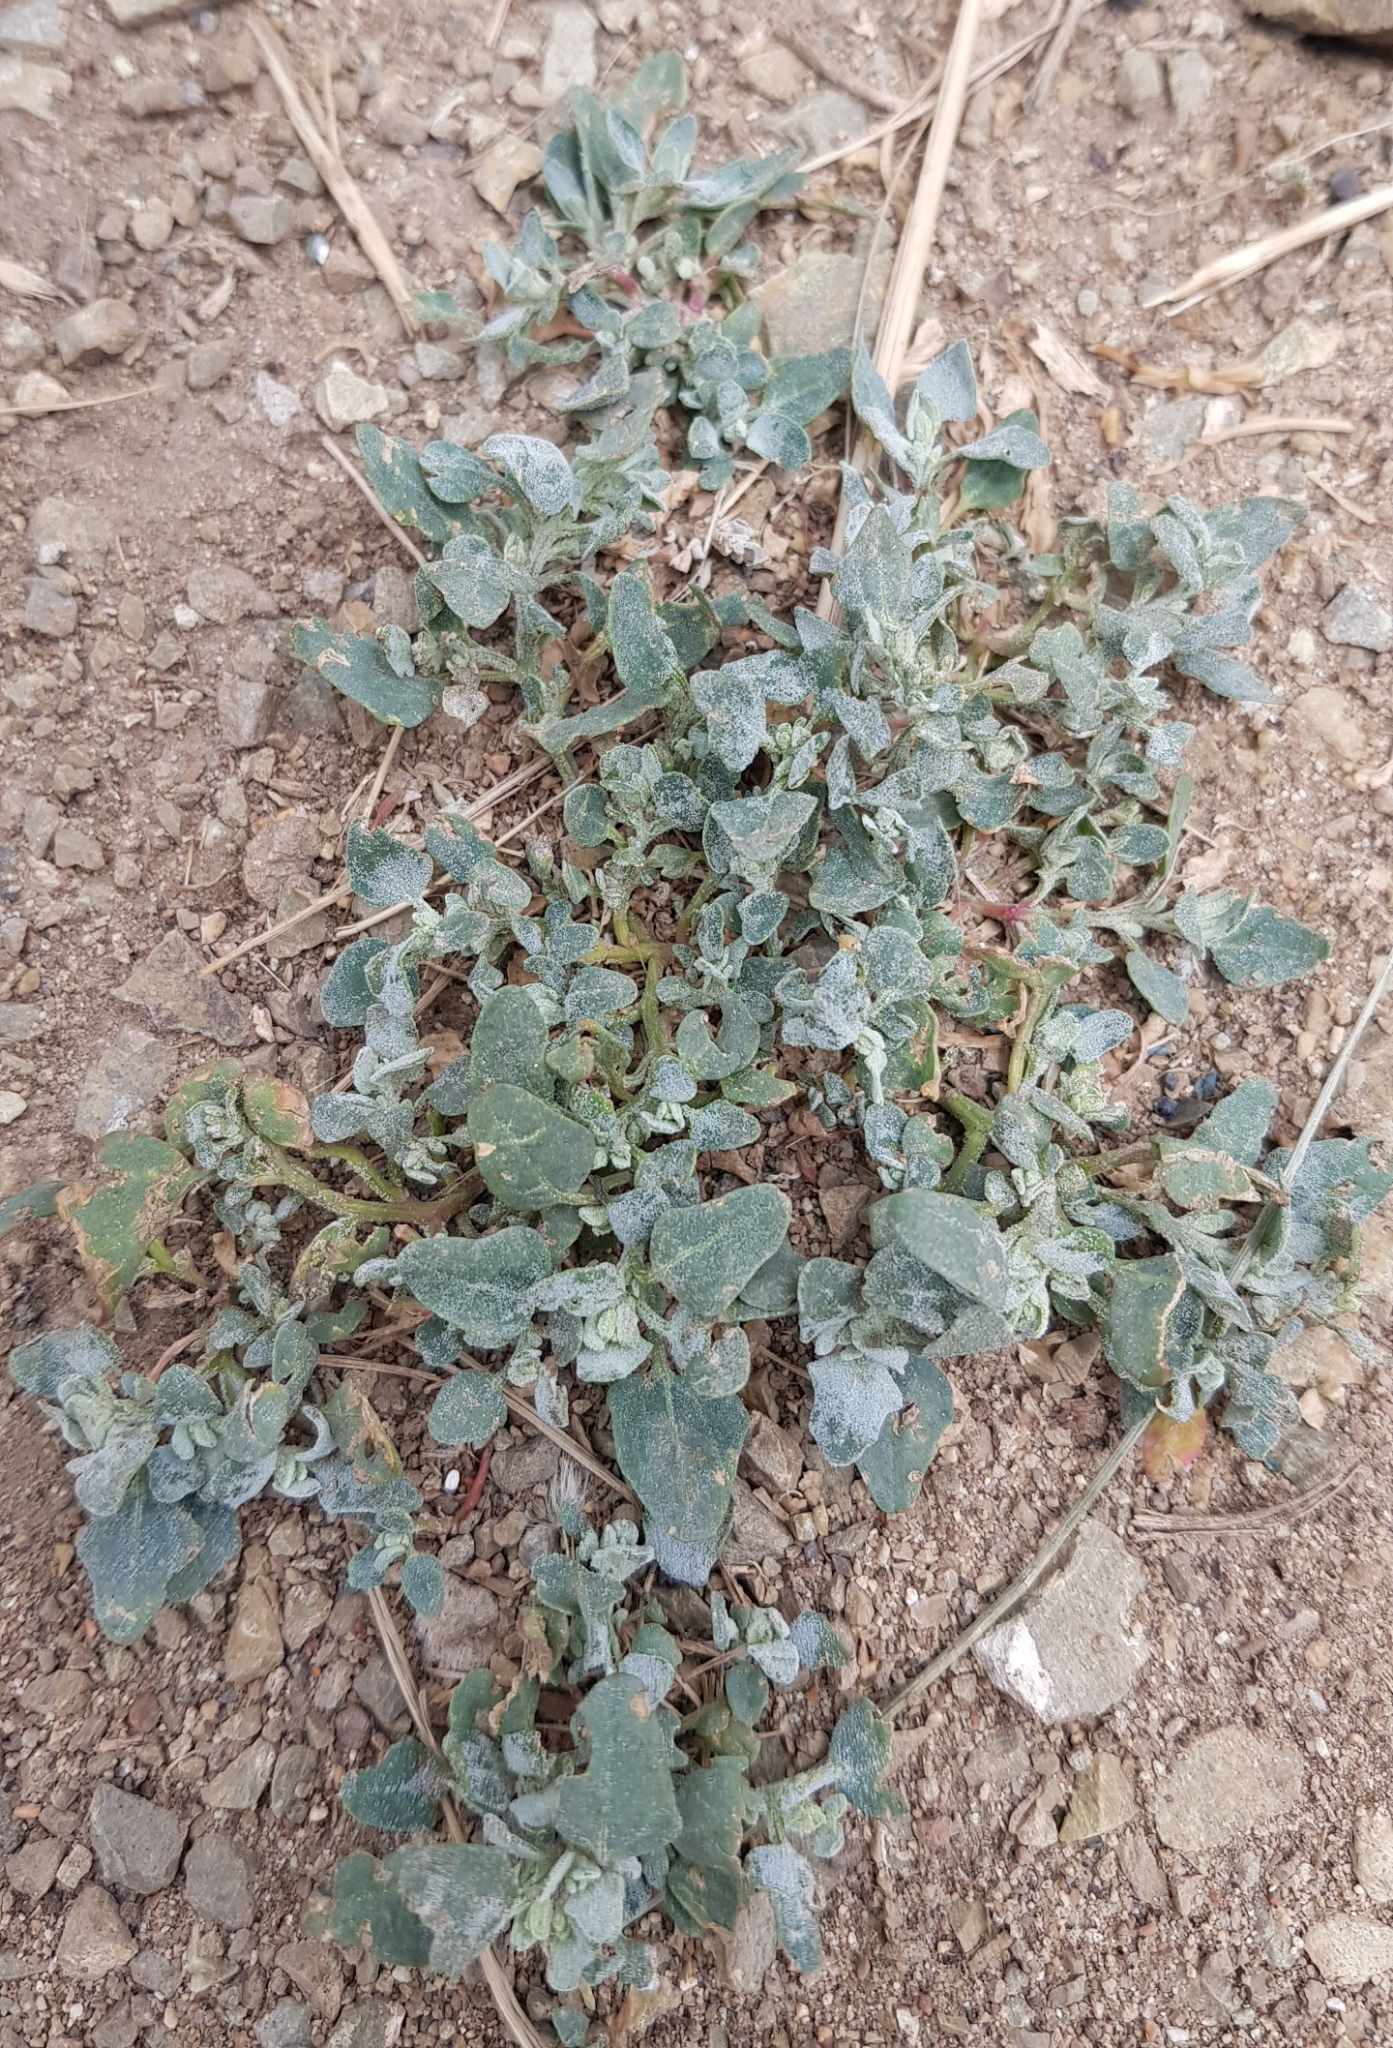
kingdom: Plantae
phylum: Tracheophyta
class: Magnoliopsida
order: Caryophyllales
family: Amaranthaceae
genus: Chenopodium
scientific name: Chenopodium album
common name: Fat-hen
